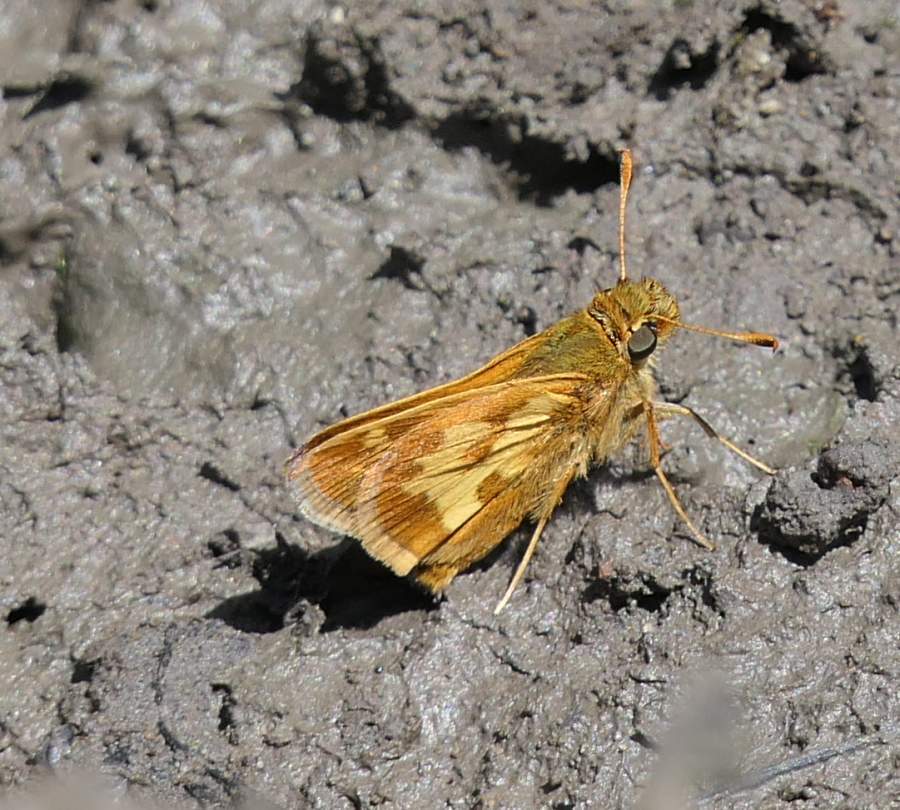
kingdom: Animalia
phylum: Arthropoda
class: Insecta
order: Lepidoptera
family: Hesperiidae
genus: Polites
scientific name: Polites coras
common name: Peck's skipper
